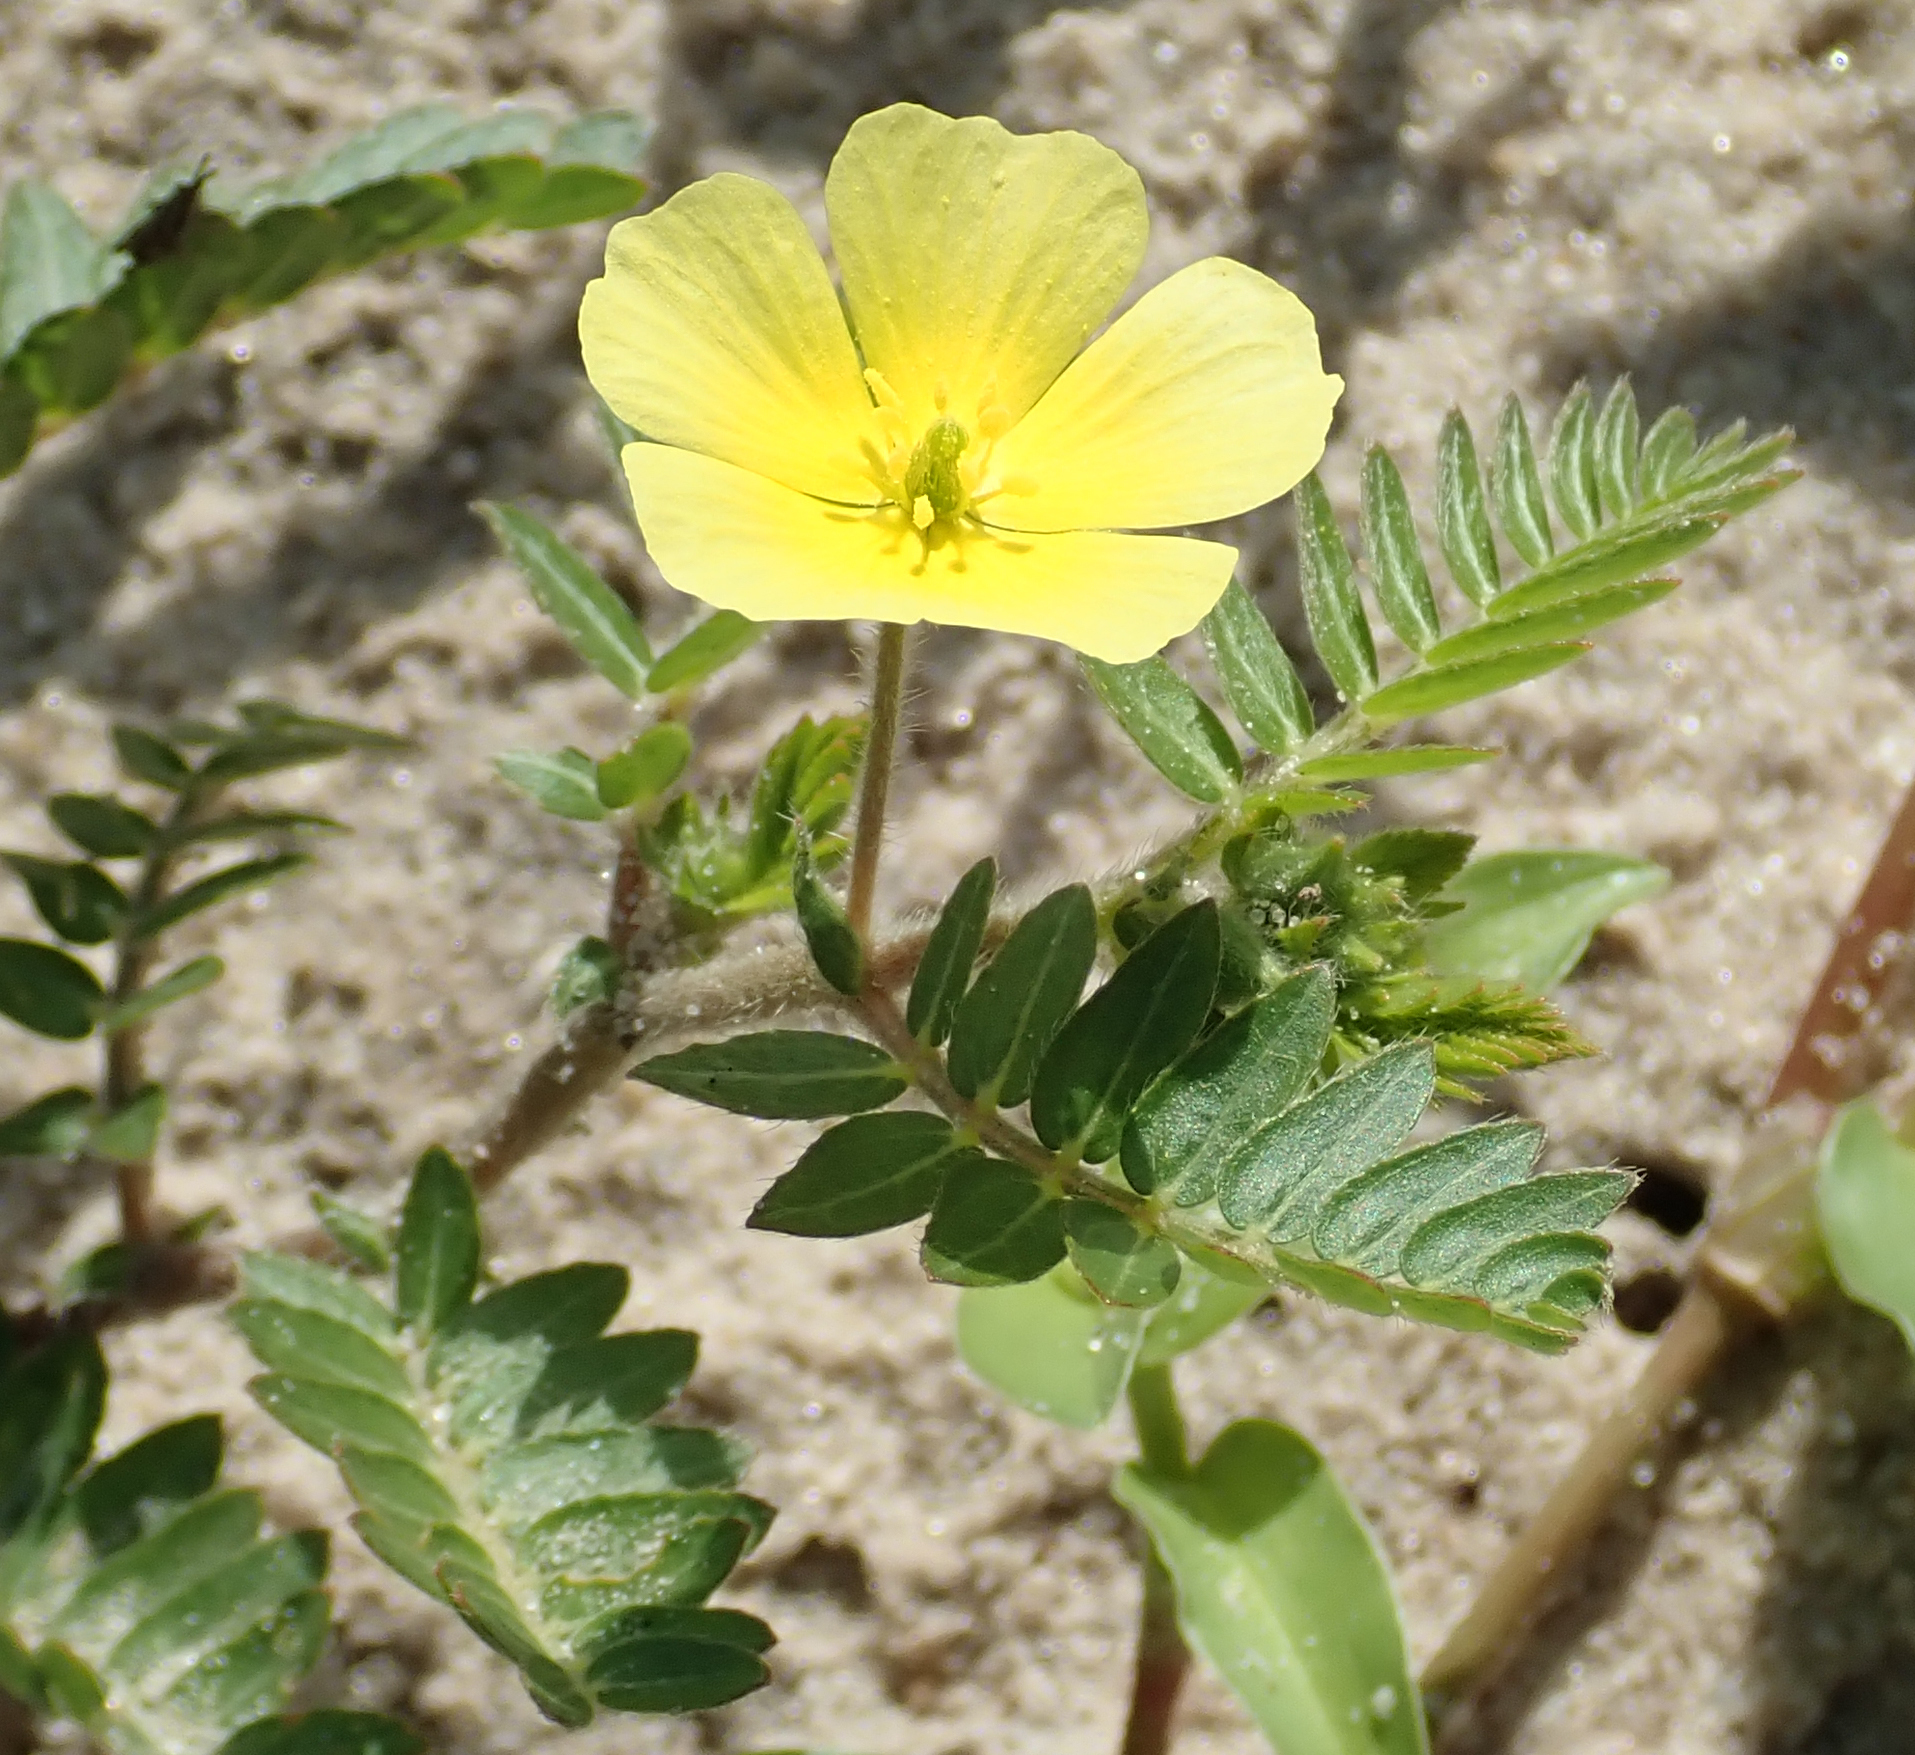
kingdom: Plantae
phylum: Tracheophyta
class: Magnoliopsida
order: Zygophyllales
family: Zygophyllaceae
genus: Tribulus
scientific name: Tribulus terrestris
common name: Puncturevine
